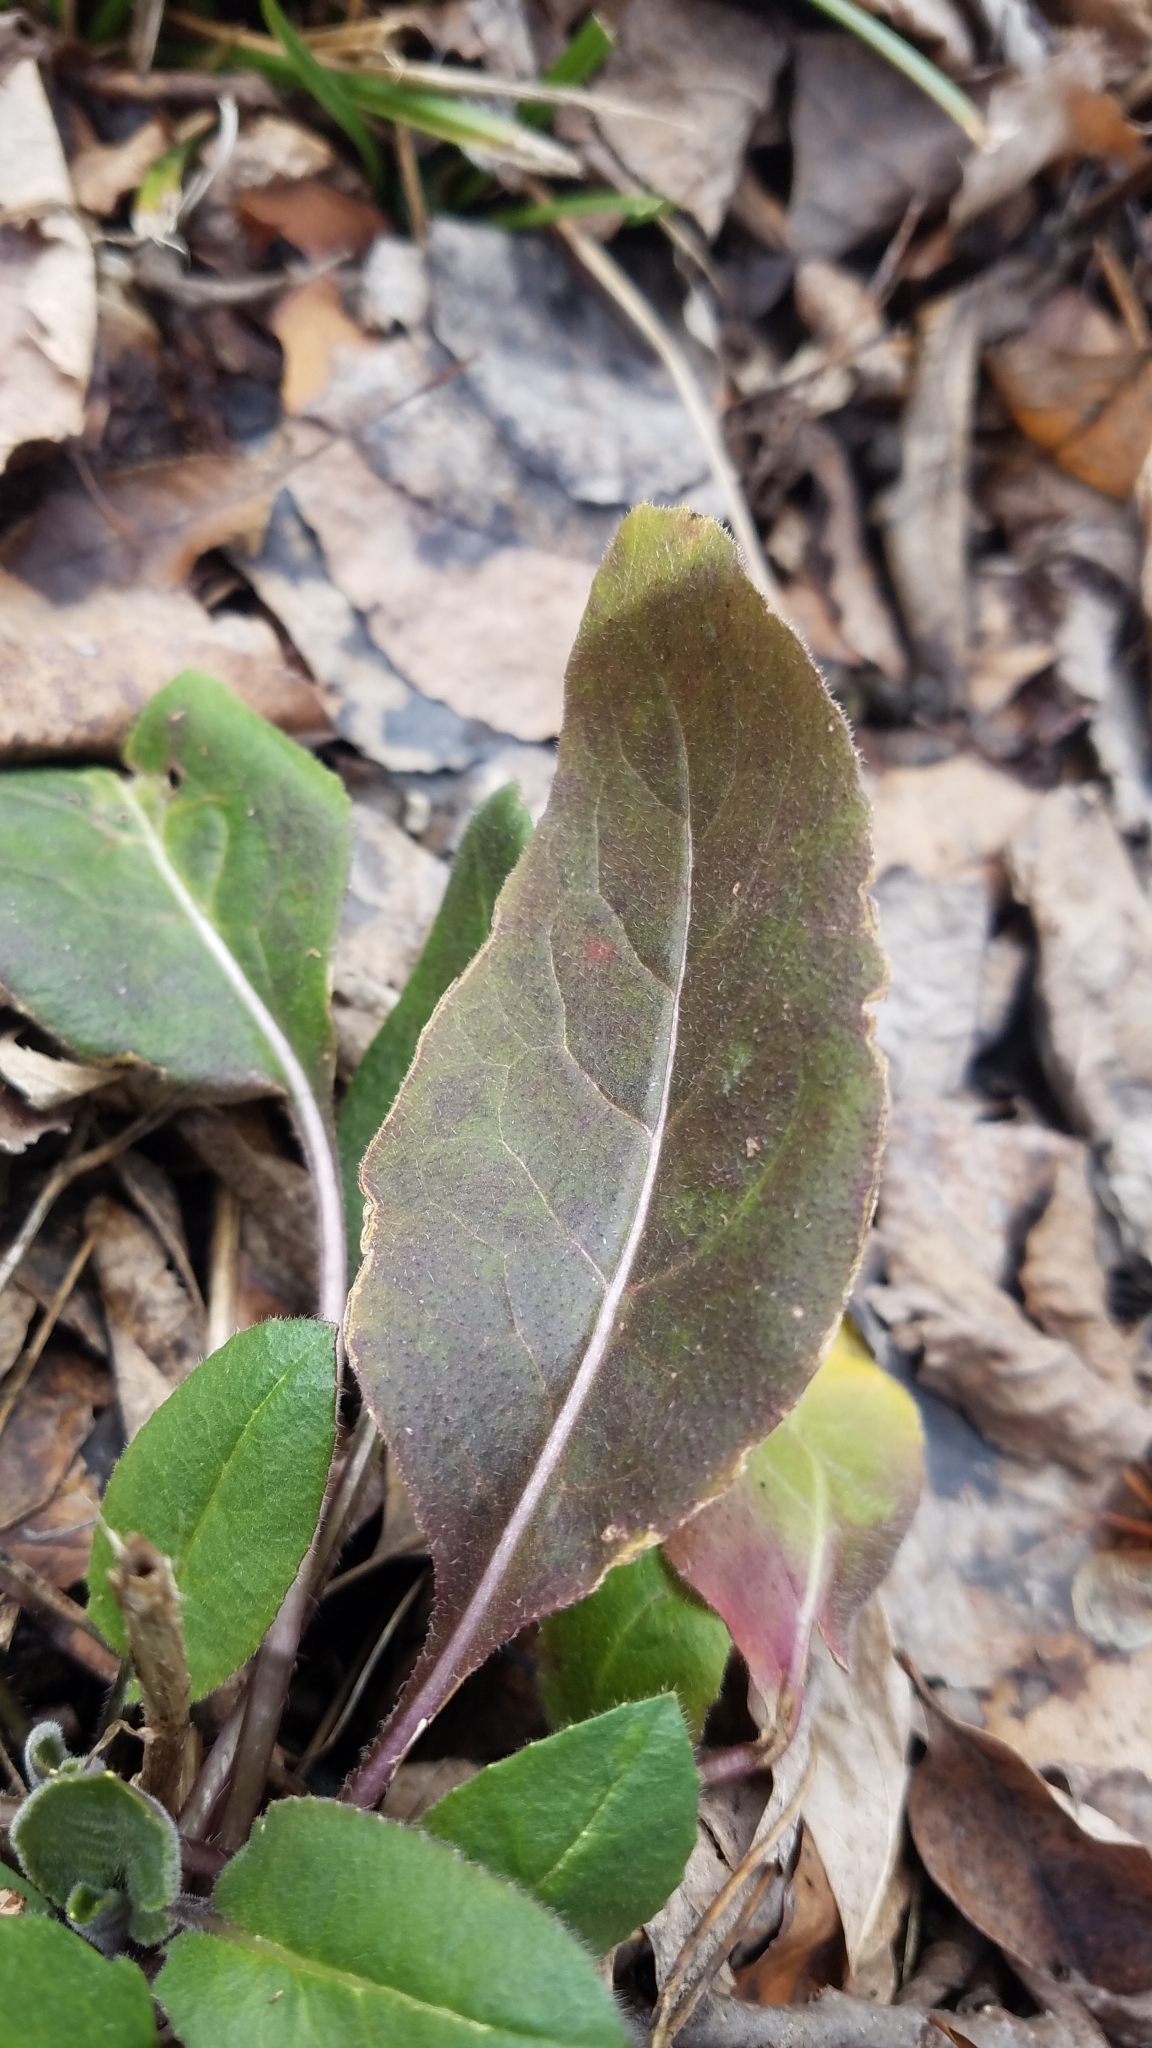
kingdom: Plantae
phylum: Tracheophyta
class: Magnoliopsida
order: Brassicales
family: Brassicaceae
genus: Hesperis
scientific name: Hesperis matronalis
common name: Dame's-violet
